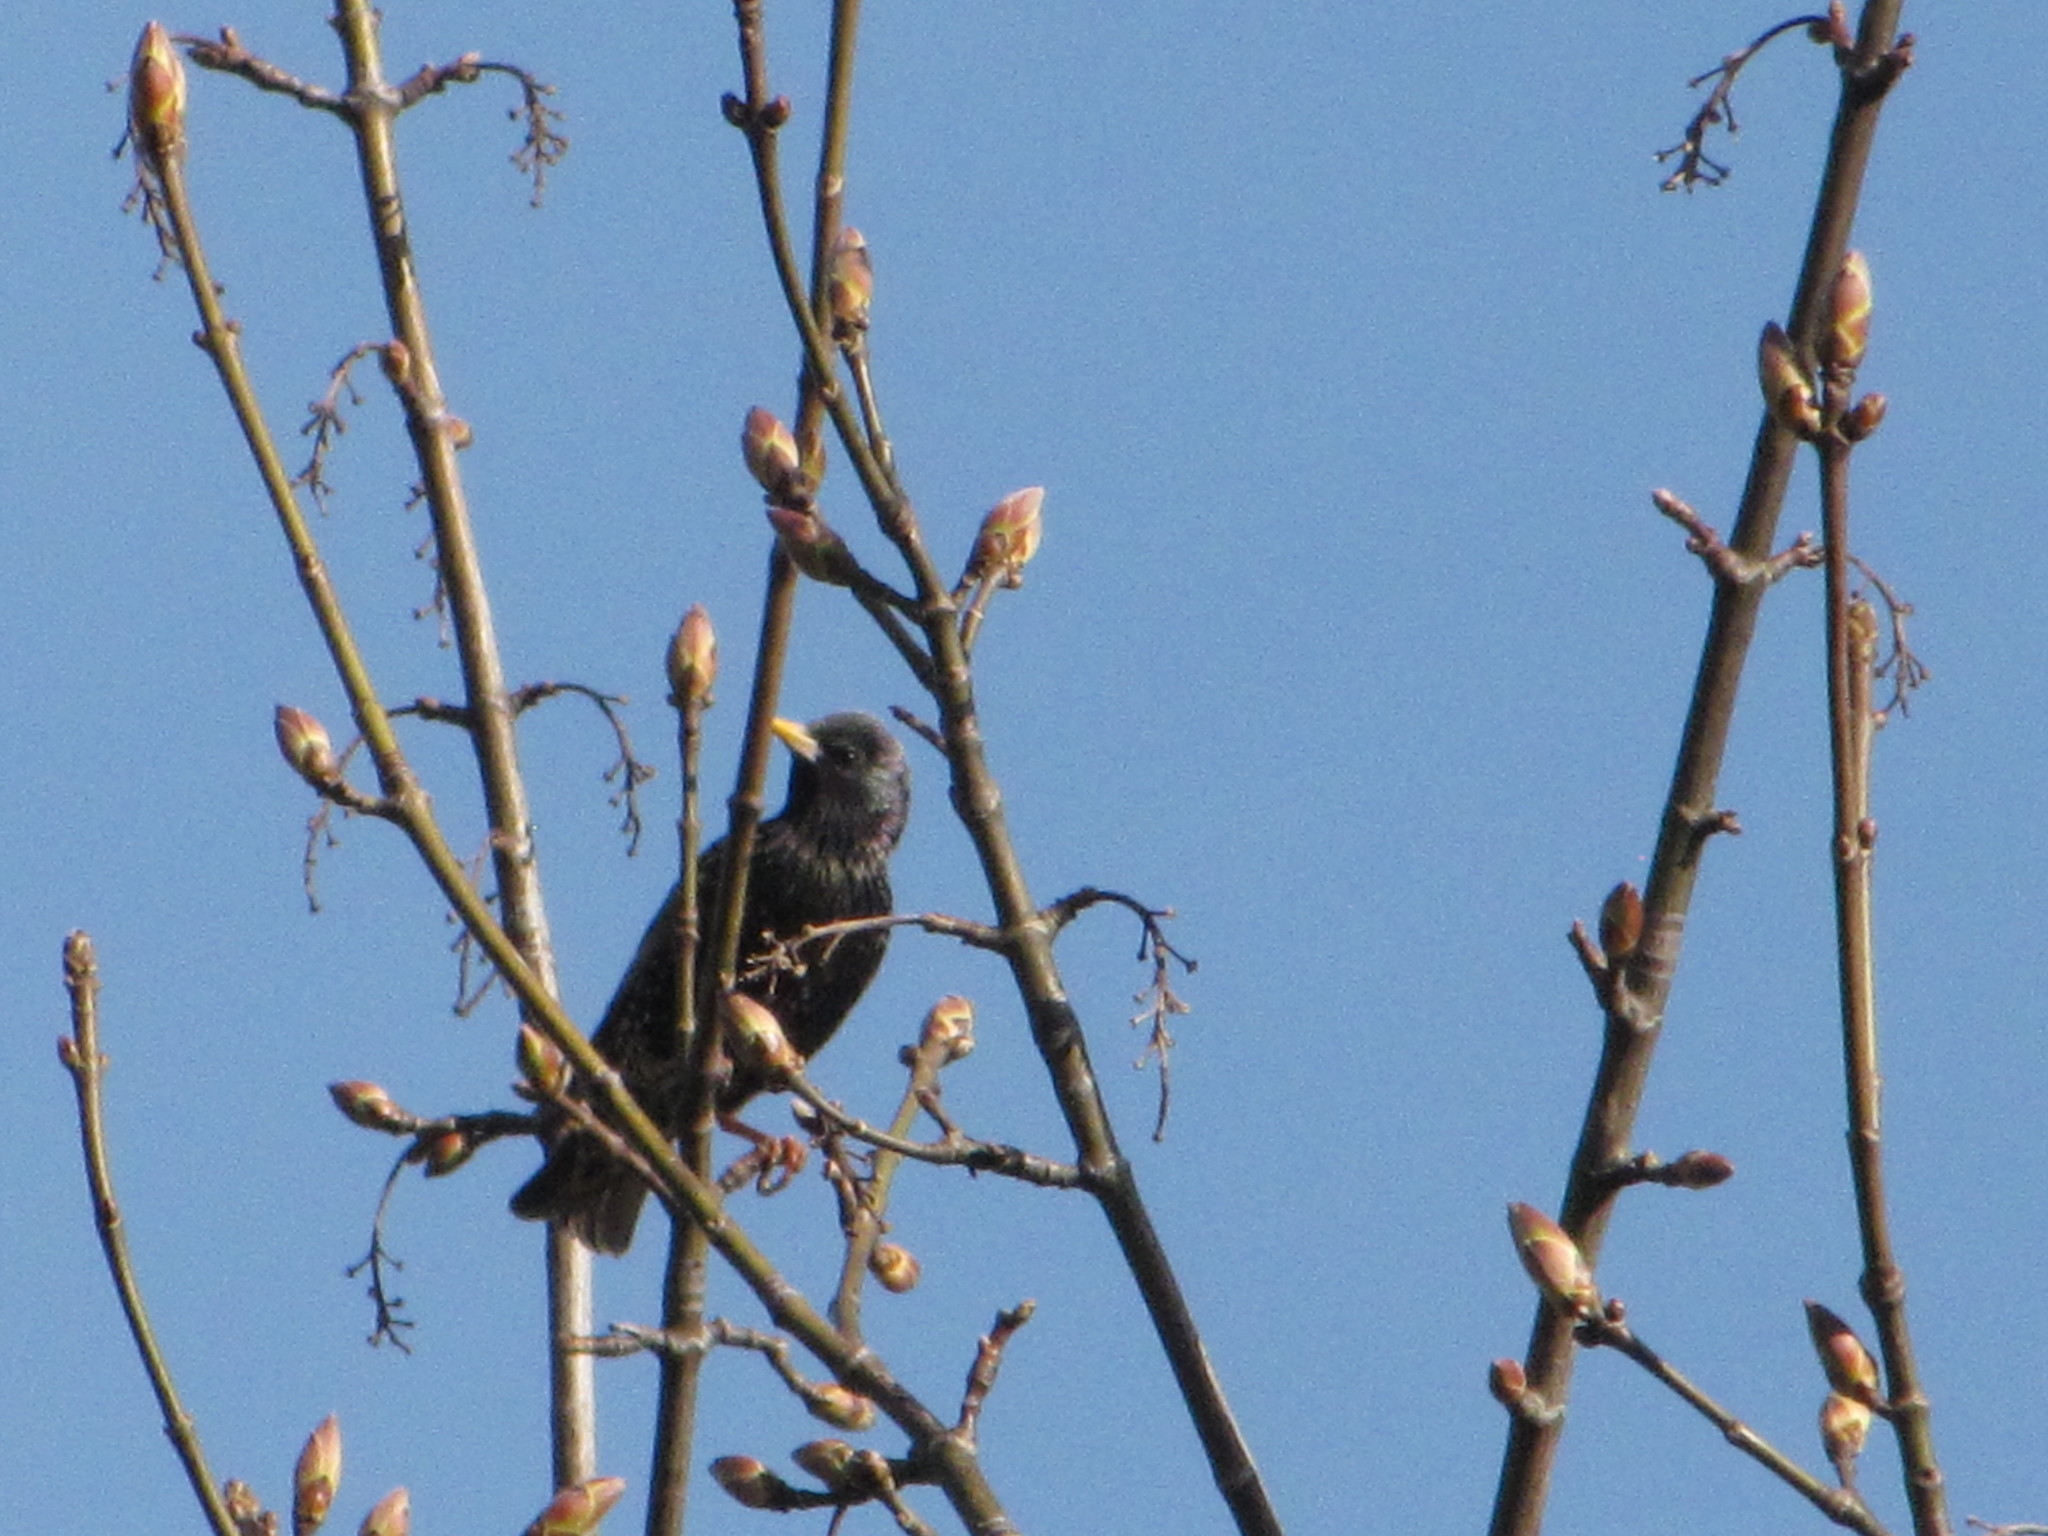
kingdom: Animalia
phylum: Chordata
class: Aves
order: Passeriformes
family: Sturnidae
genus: Sturnus
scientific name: Sturnus vulgaris
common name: Common starling
